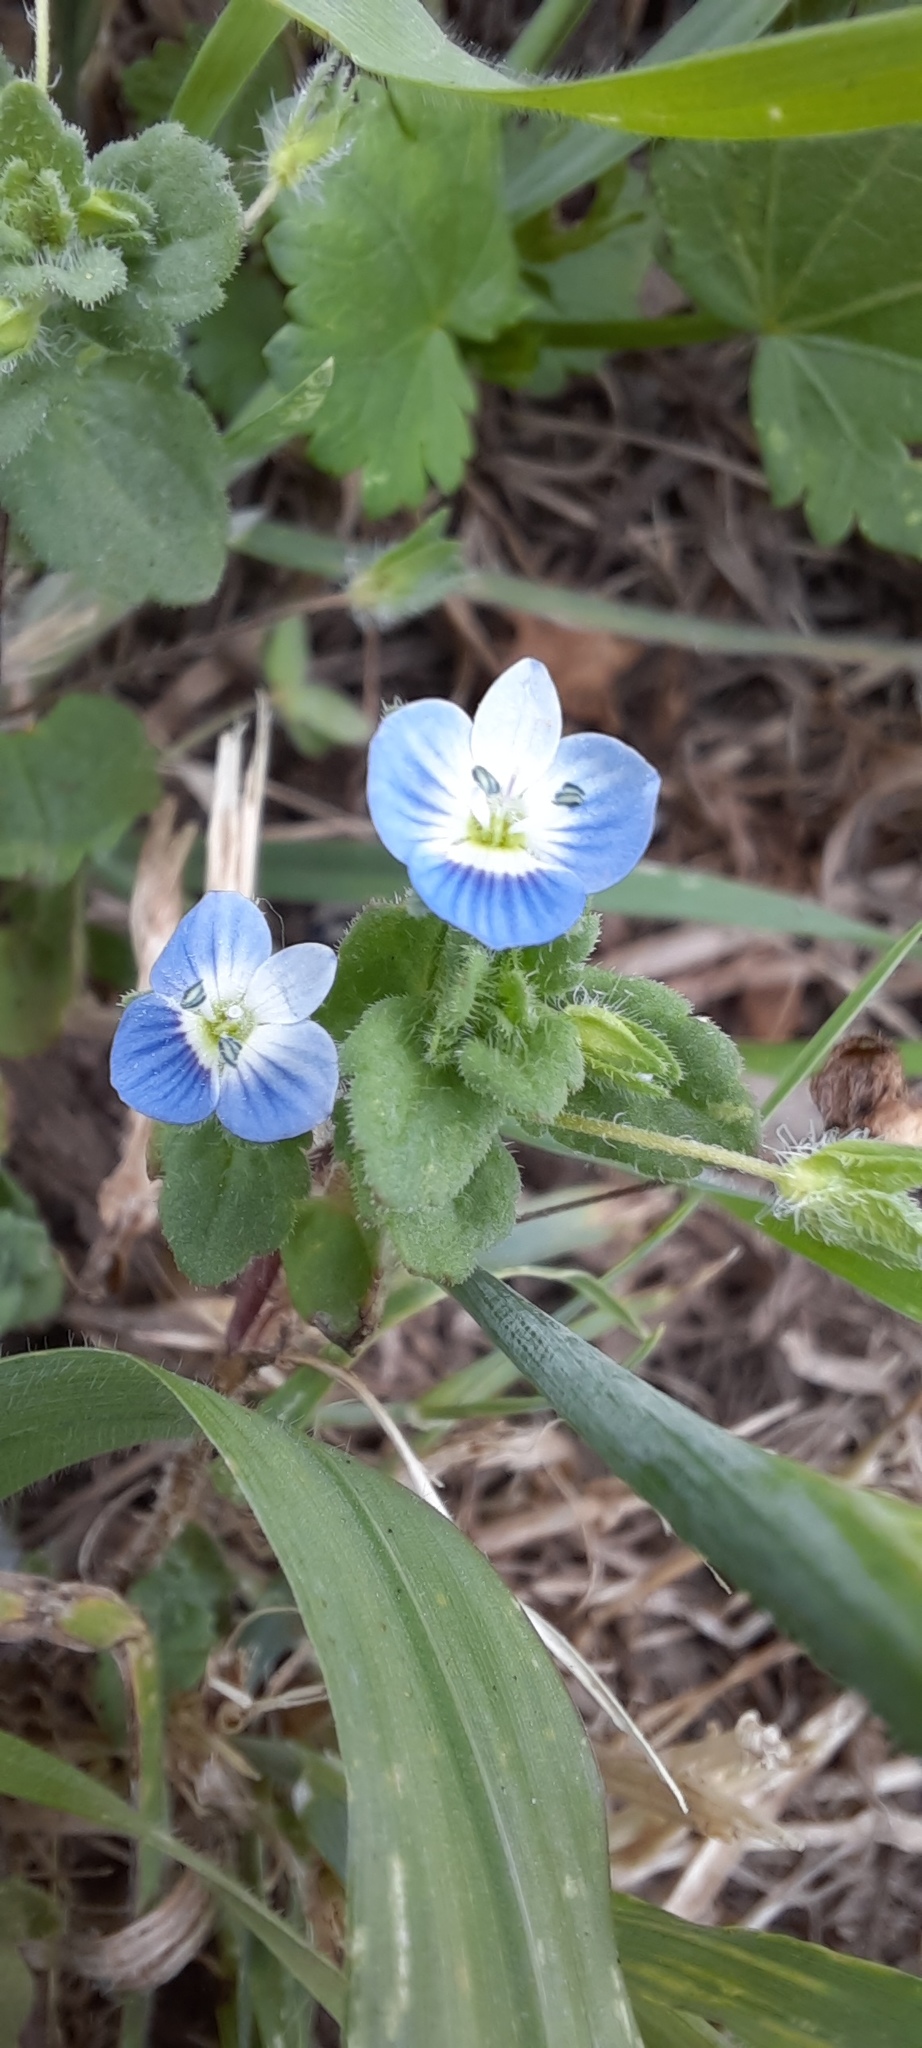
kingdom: Plantae
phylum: Tracheophyta
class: Magnoliopsida
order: Lamiales
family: Plantaginaceae
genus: Veronica
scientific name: Veronica persica
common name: Common field-speedwell
